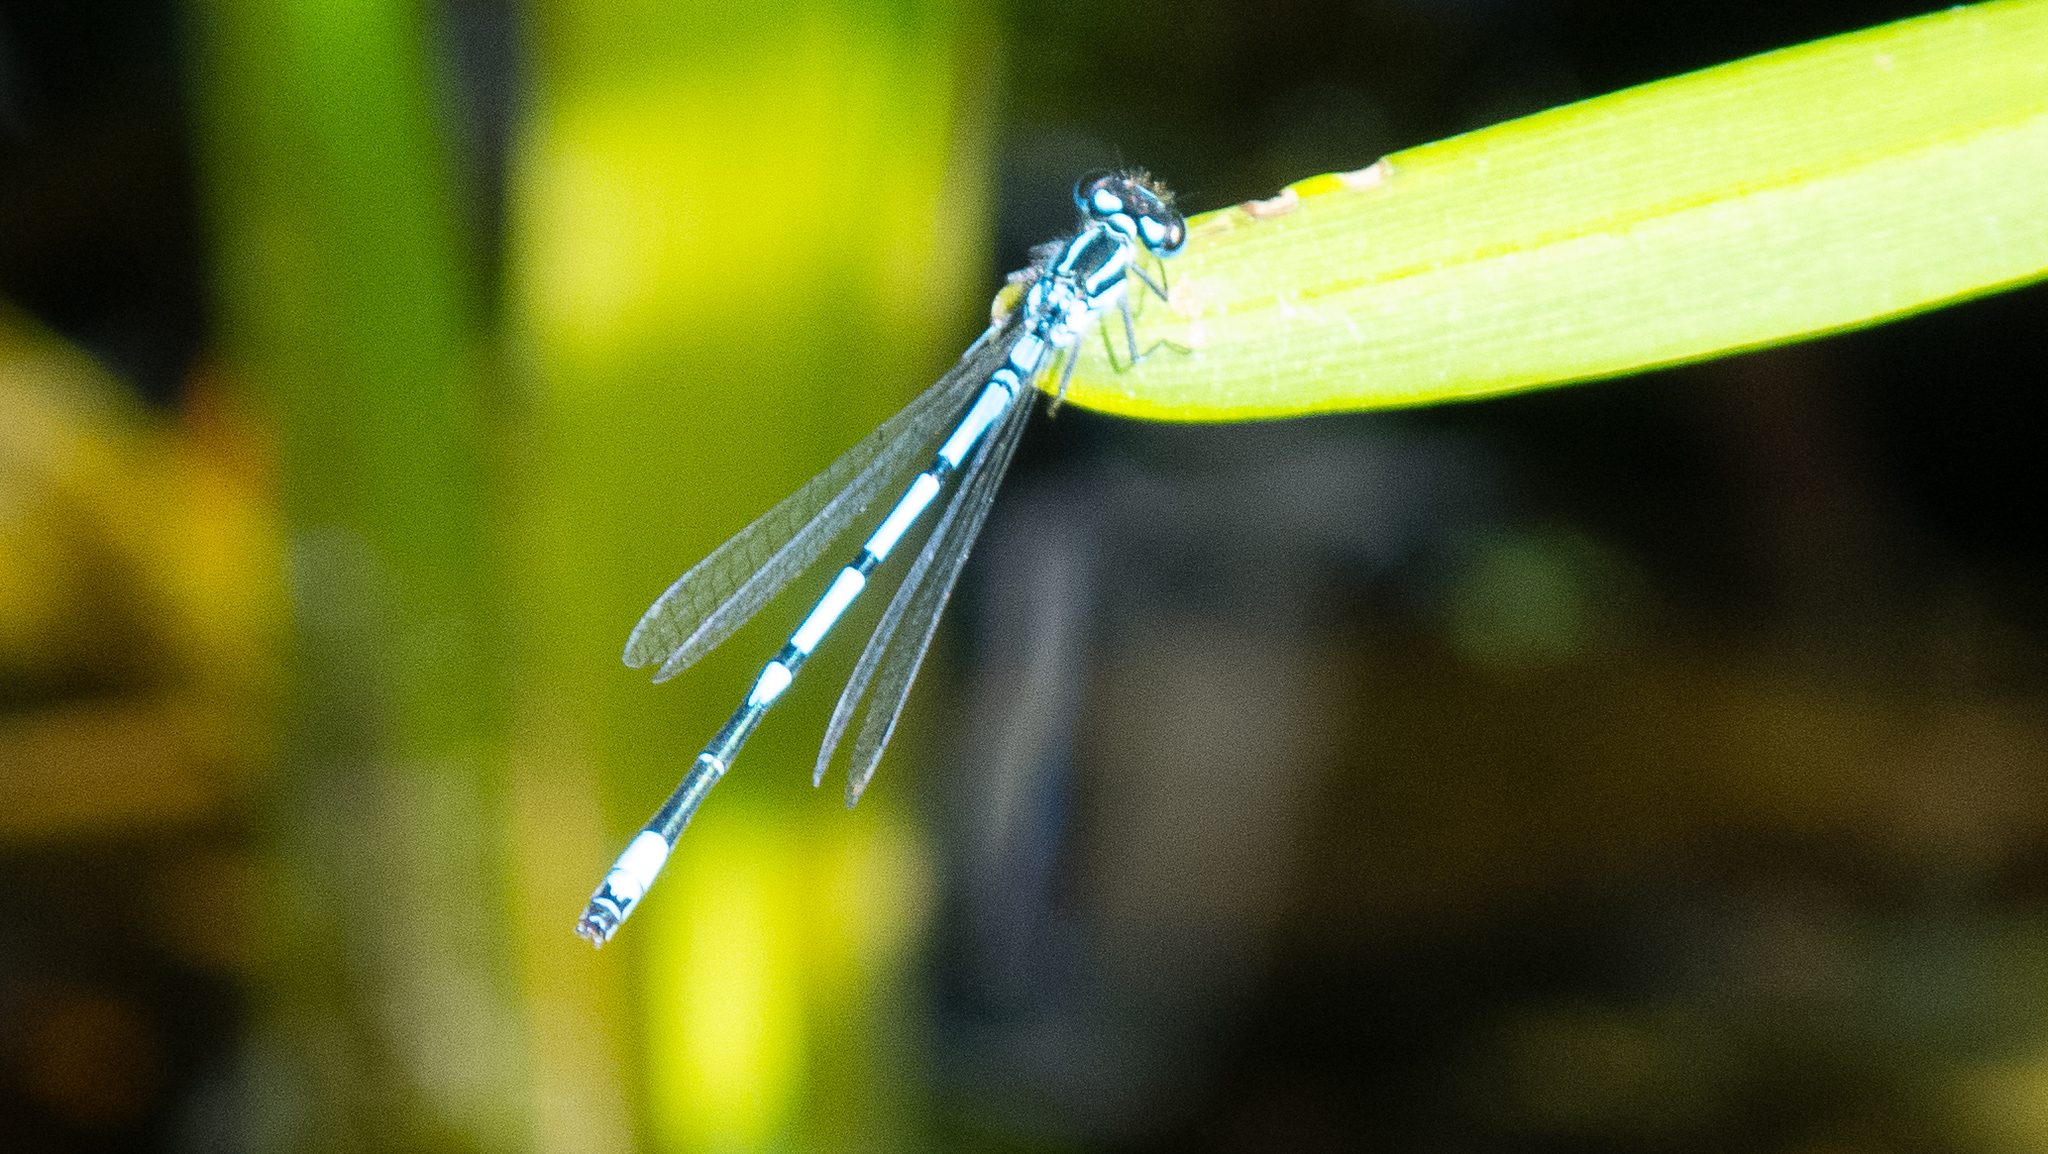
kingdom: Animalia
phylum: Arthropoda
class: Insecta
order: Odonata
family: Coenagrionidae
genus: Coenagrion
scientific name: Coenagrion puella
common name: Azure damselfly
